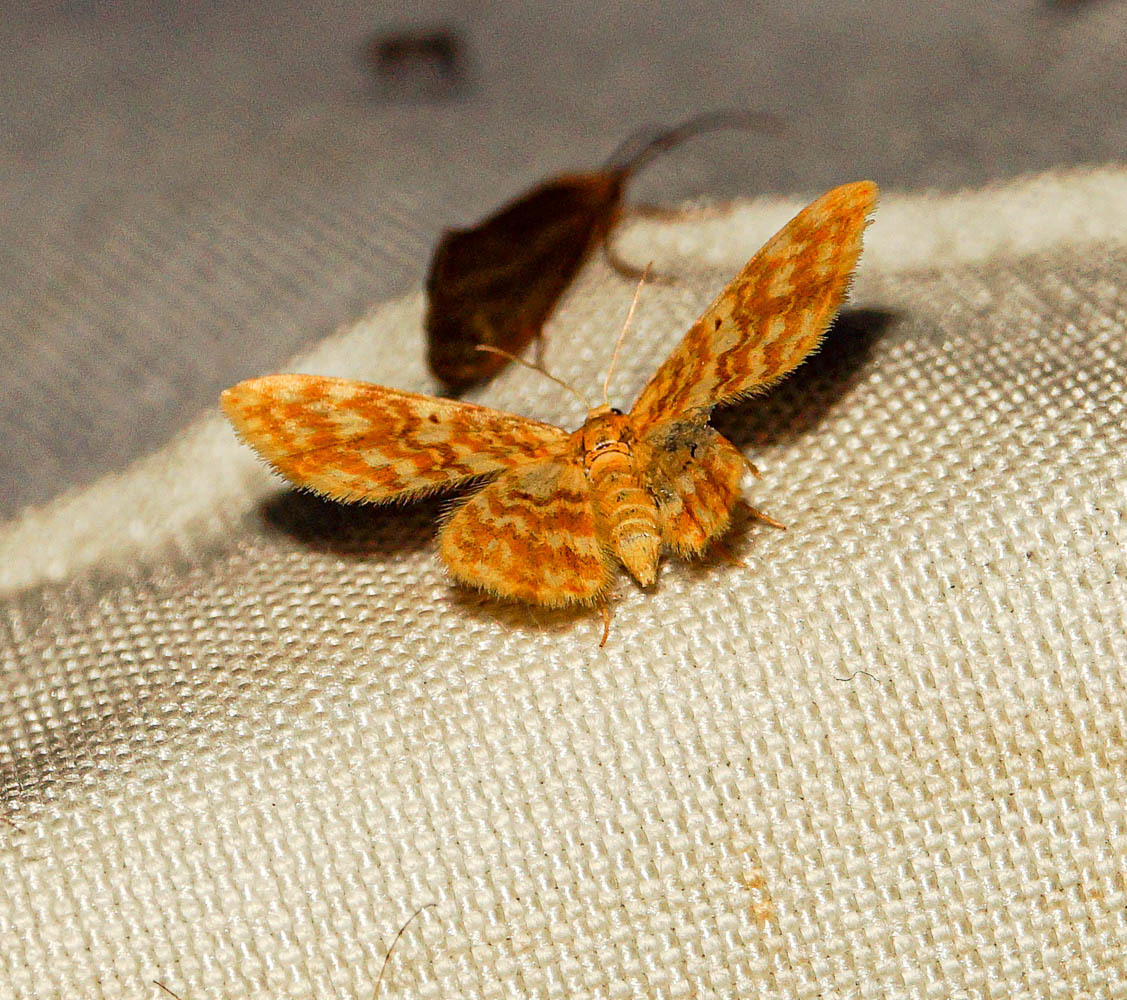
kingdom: Animalia
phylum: Arthropoda
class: Insecta
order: Lepidoptera
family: Geometridae
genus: Hydrelia
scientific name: Hydrelia flammeolaria
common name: Small yellow wave
